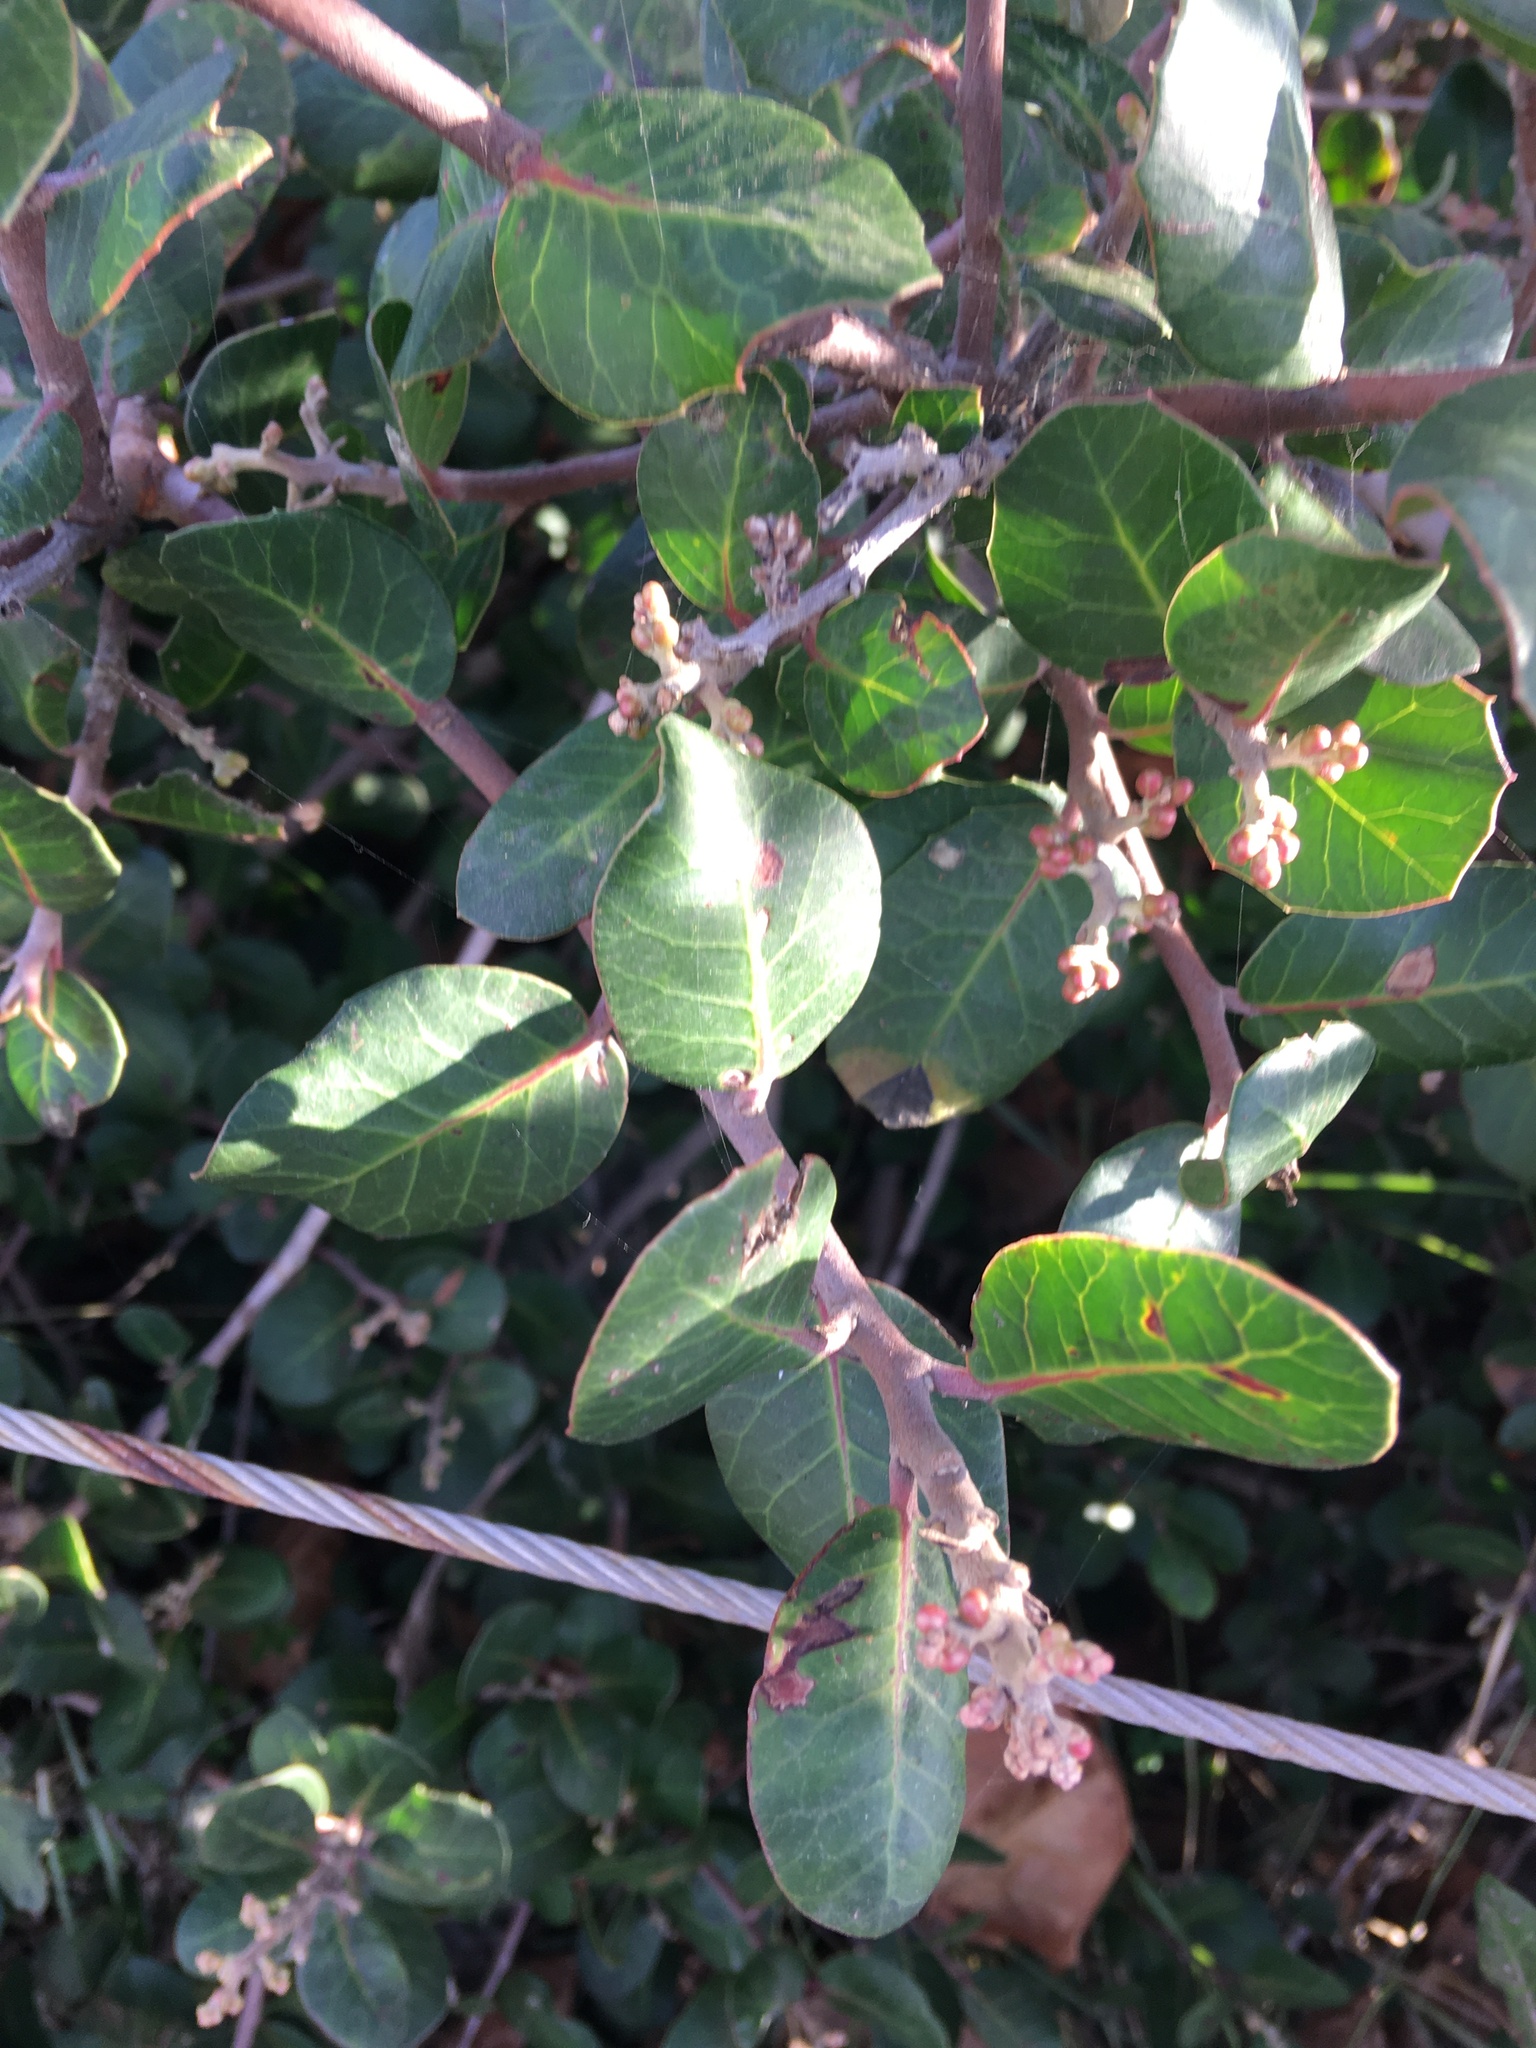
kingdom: Plantae
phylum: Tracheophyta
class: Magnoliopsida
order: Sapindales
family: Anacardiaceae
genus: Rhus
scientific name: Rhus integrifolia
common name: Lemonade sumac
